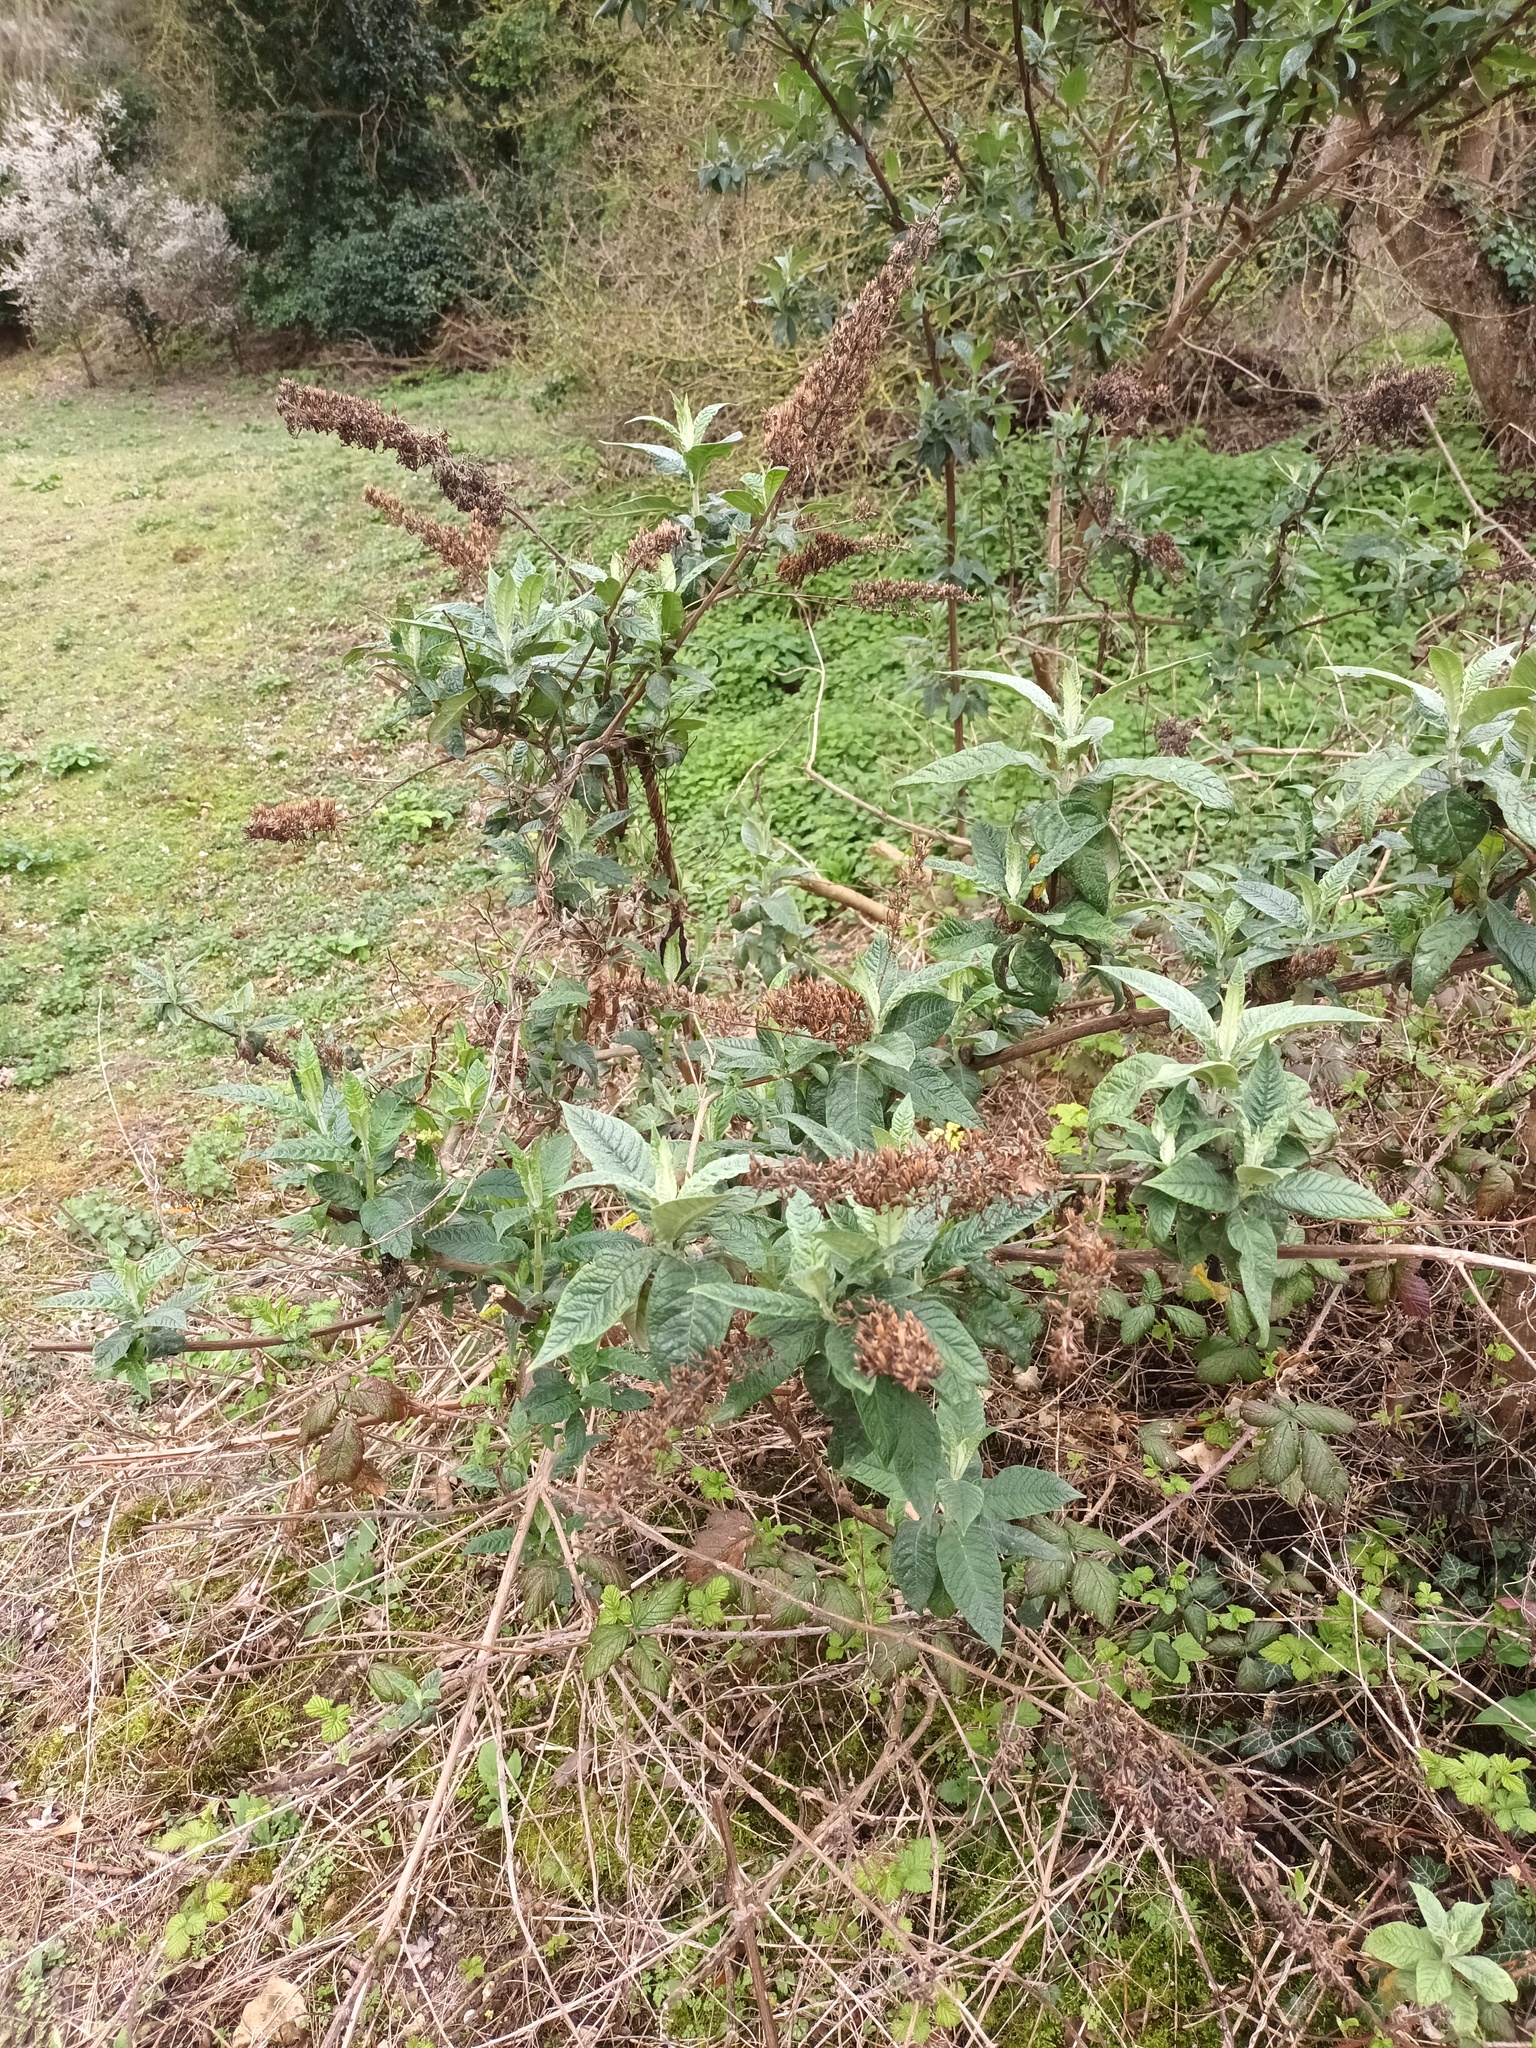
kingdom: Plantae
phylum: Tracheophyta
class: Magnoliopsida
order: Lamiales
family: Scrophulariaceae
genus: Buddleja
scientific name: Buddleja davidii
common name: Butterfly-bush
